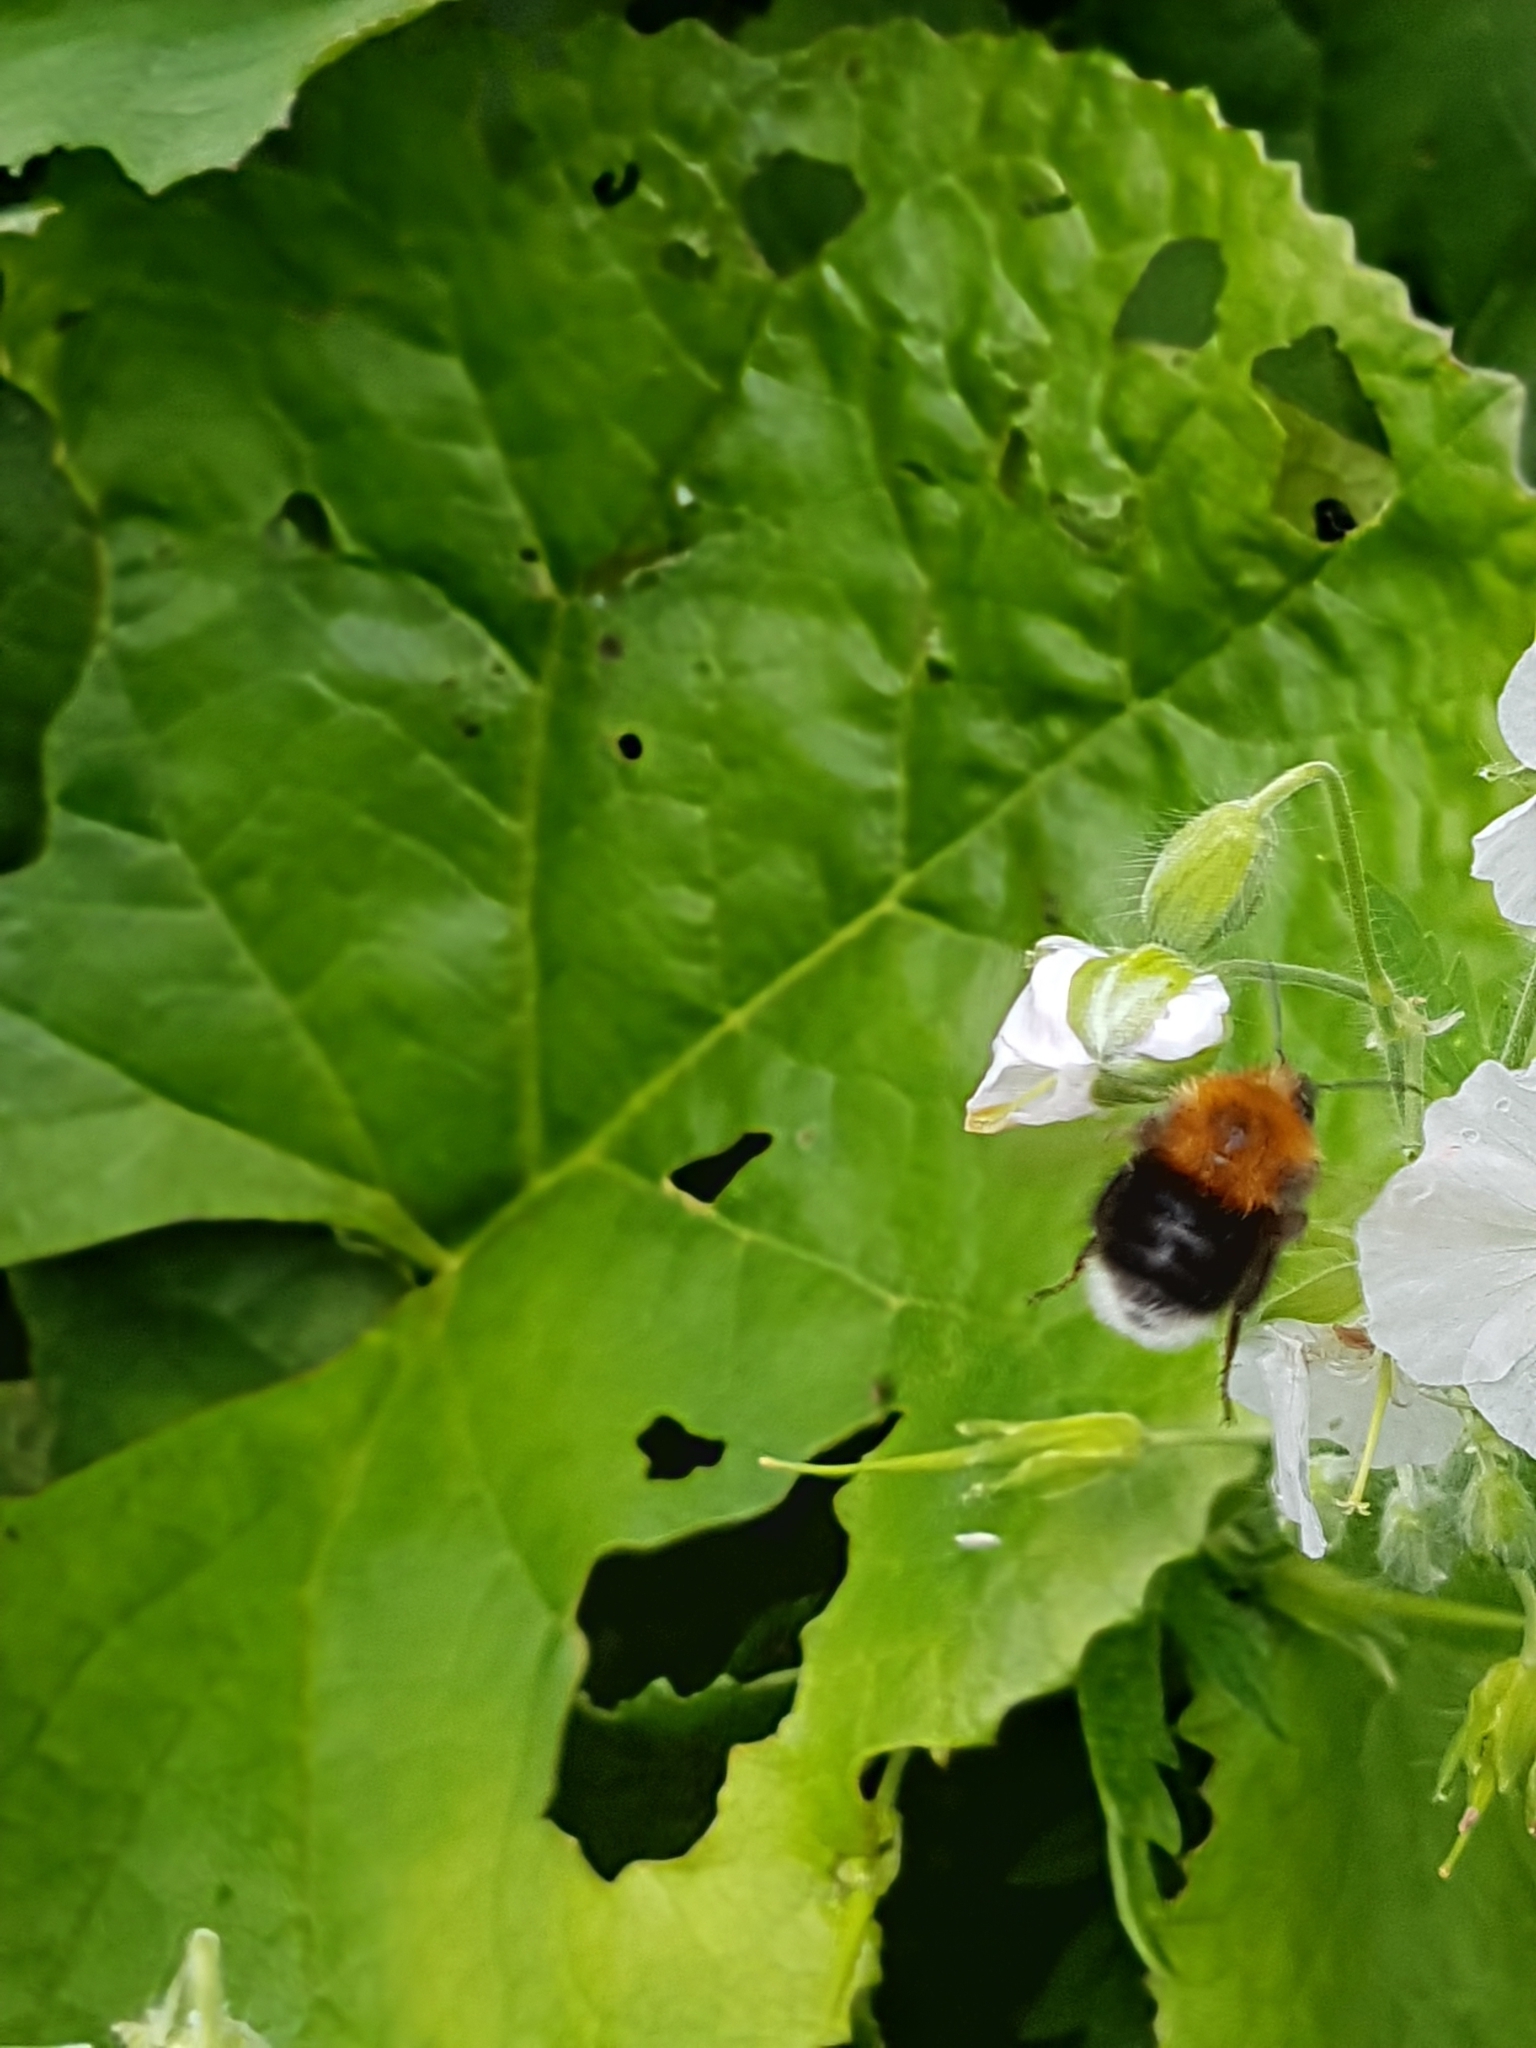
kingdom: Animalia
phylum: Arthropoda
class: Insecta
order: Hymenoptera
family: Apidae
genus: Bombus
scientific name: Bombus hypnorum
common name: New garden bumblebee
